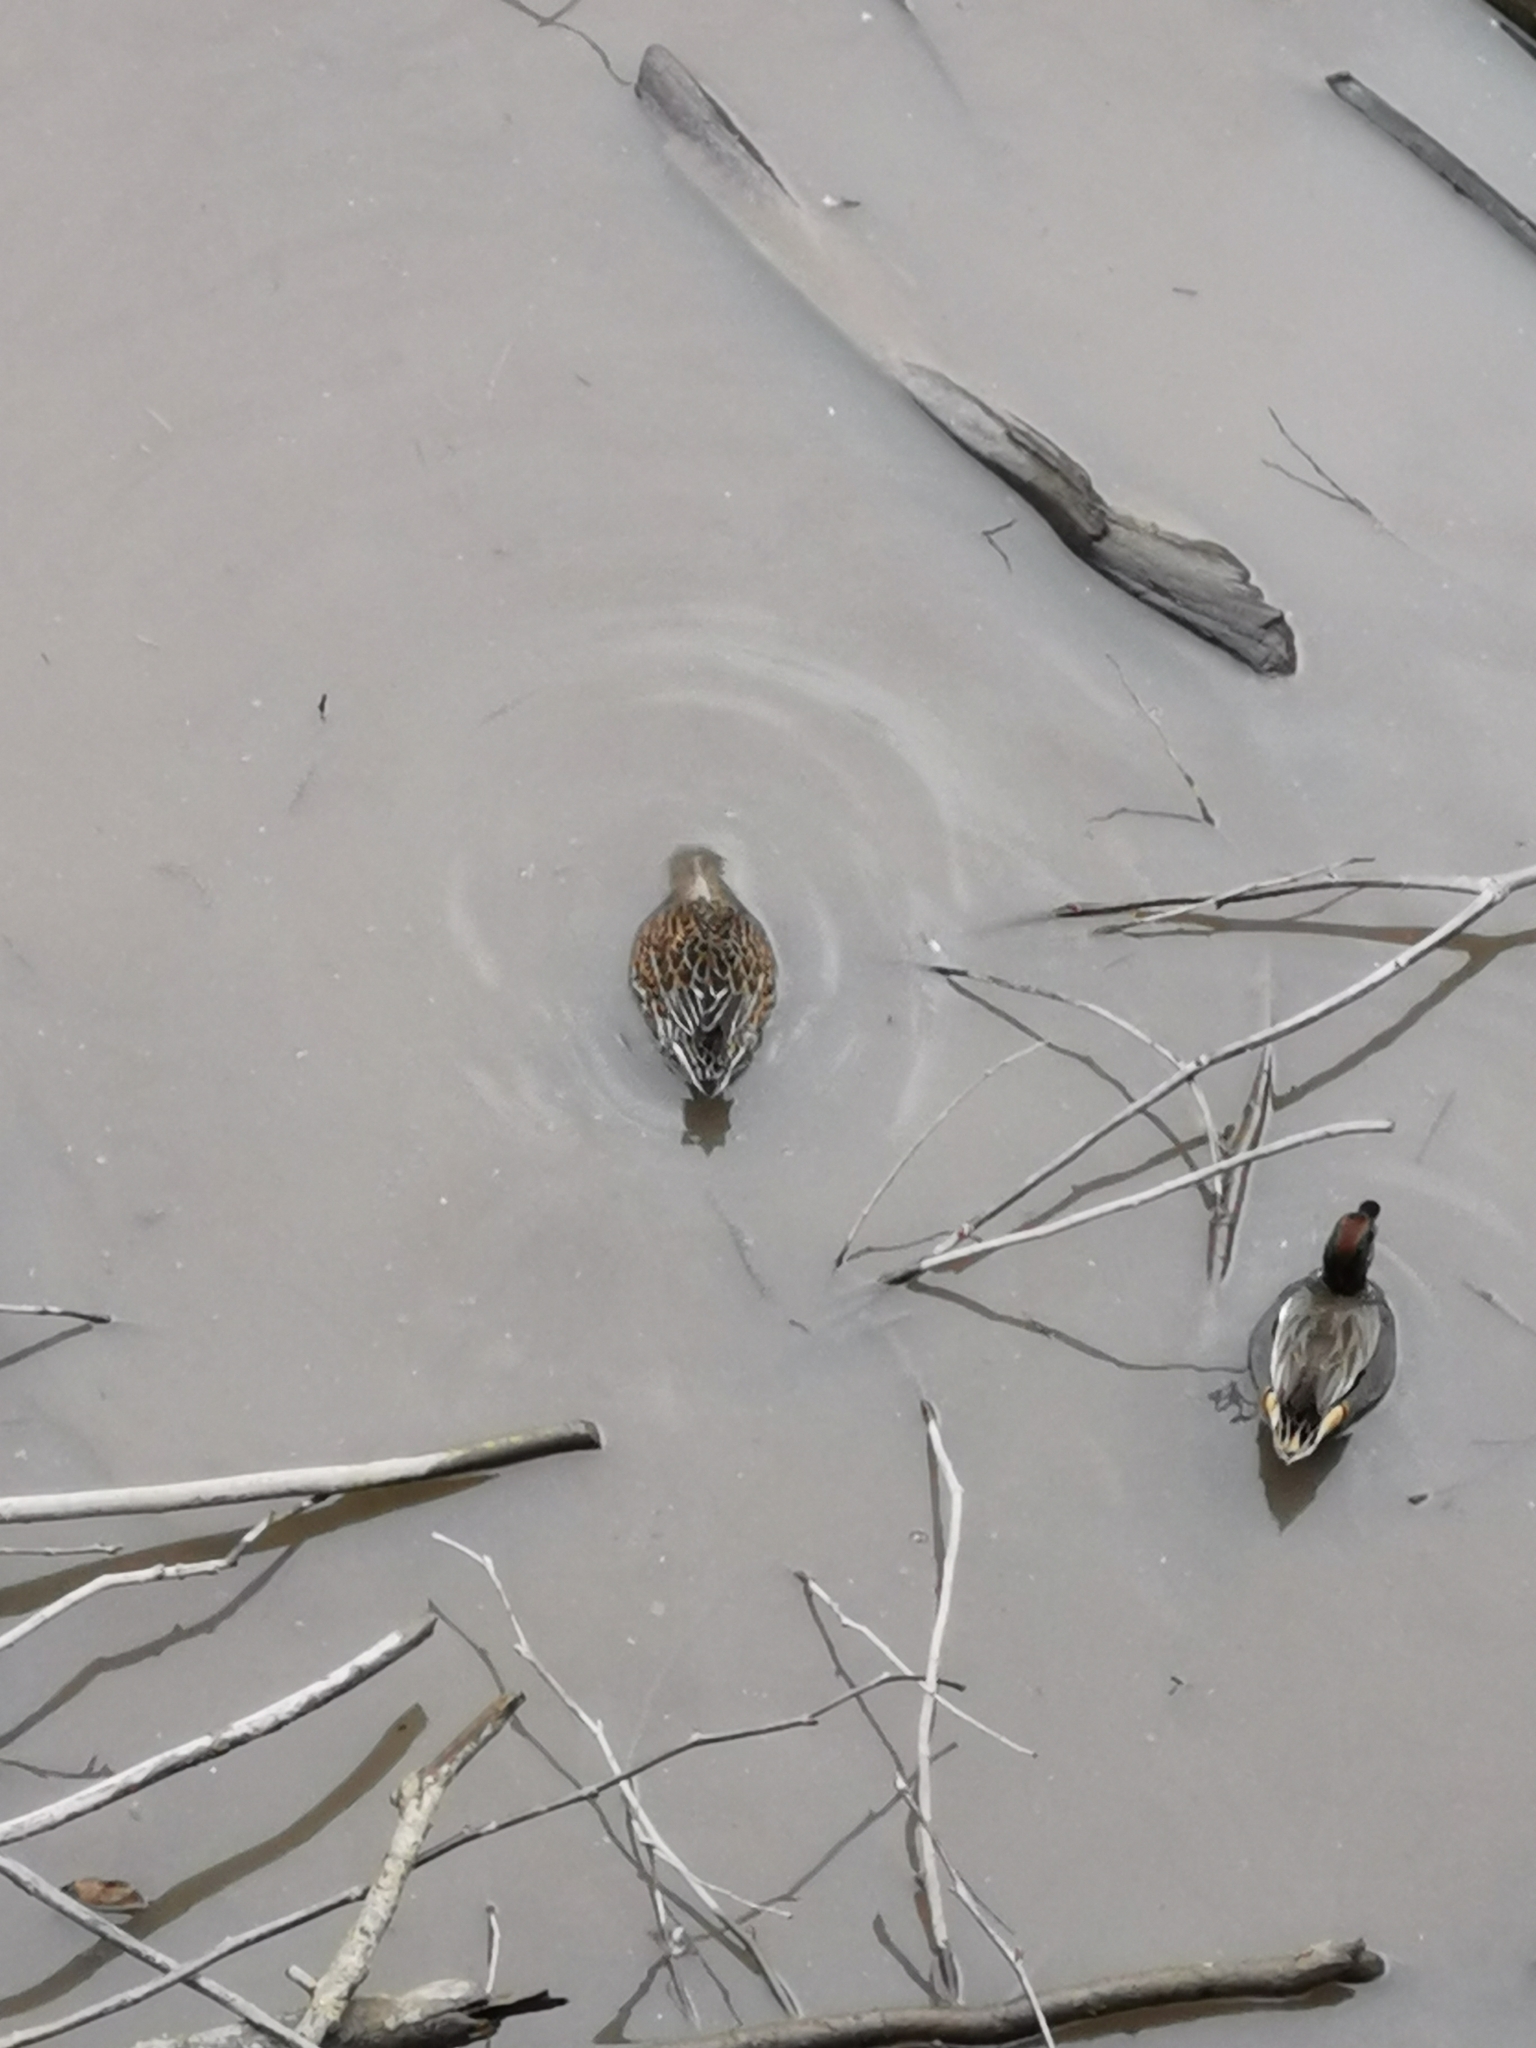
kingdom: Animalia
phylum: Chordata
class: Aves
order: Anseriformes
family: Anatidae
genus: Anas
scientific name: Anas crecca
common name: Eurasian teal
